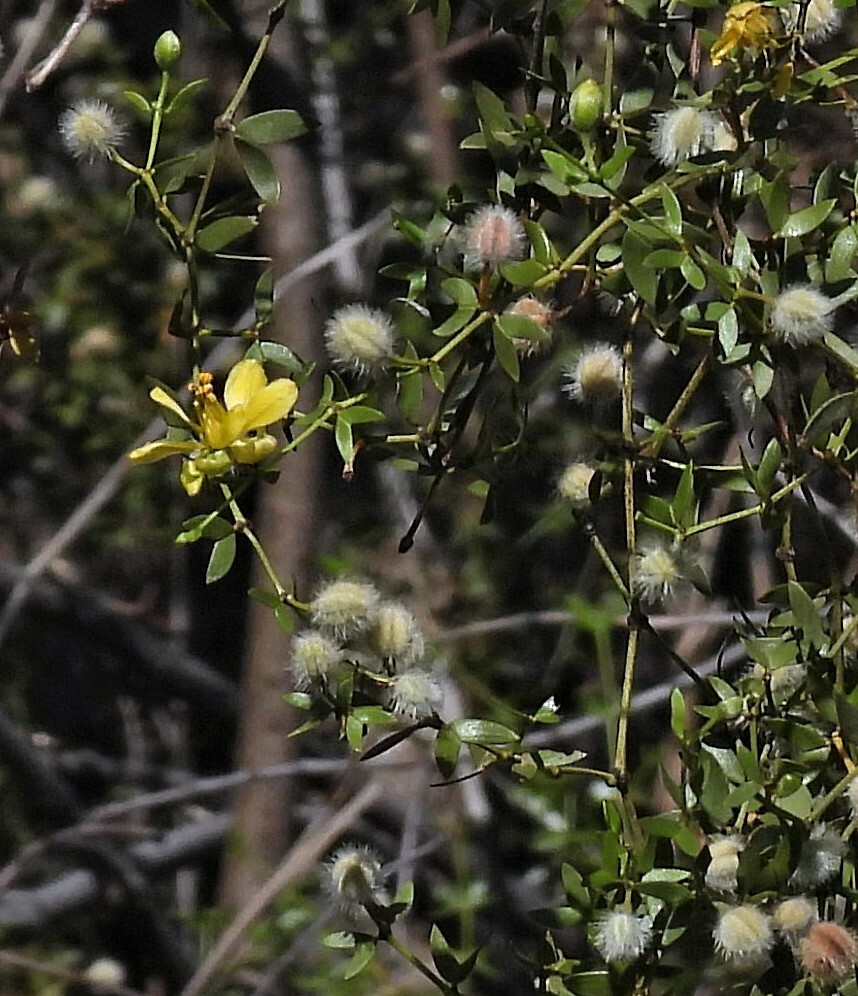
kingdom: Plantae
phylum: Tracheophyta
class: Magnoliopsida
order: Zygophyllales
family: Zygophyllaceae
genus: Larrea
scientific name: Larrea divaricata
